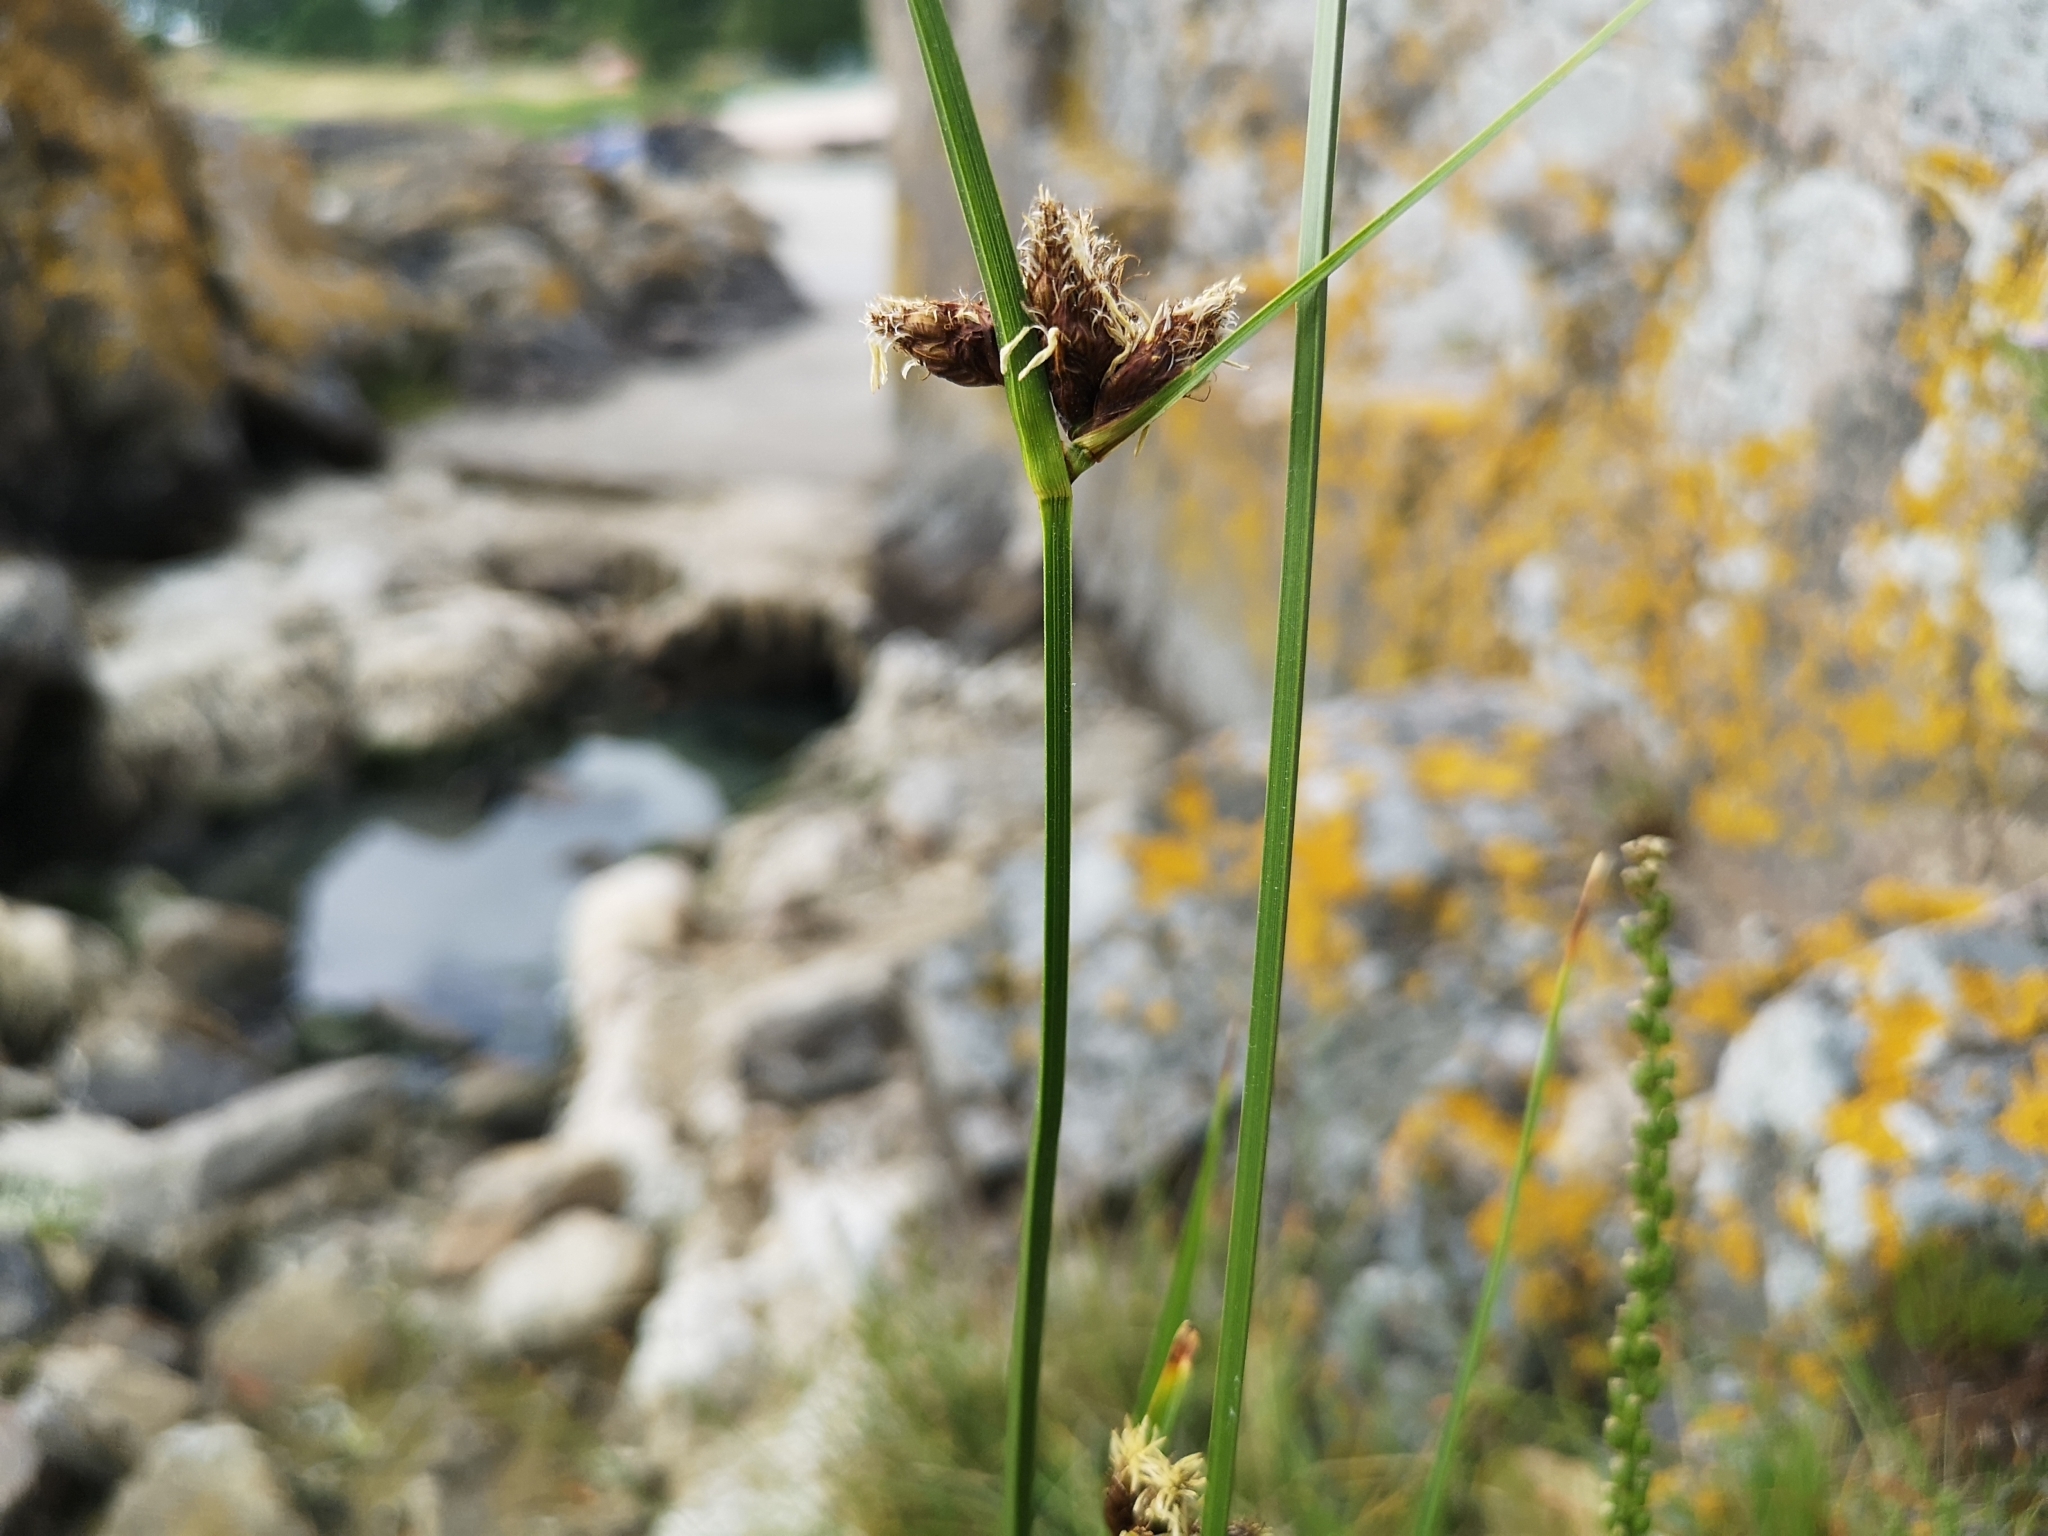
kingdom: Plantae
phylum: Tracheophyta
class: Liliopsida
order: Poales
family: Cyperaceae
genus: Bolboschoenus
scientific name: Bolboschoenus maritimus
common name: Sea club-rush
